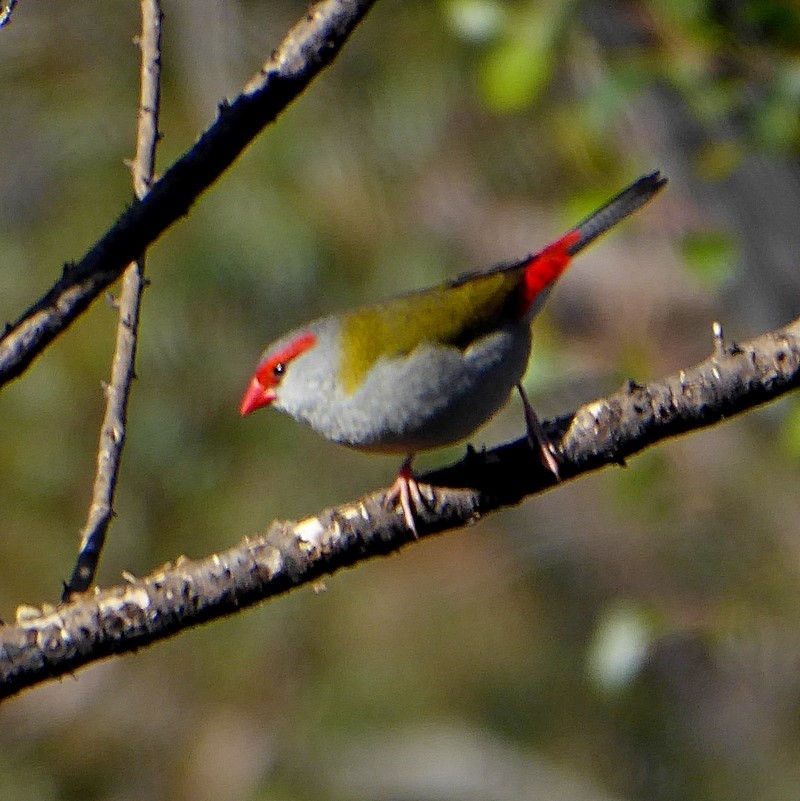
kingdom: Animalia
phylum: Chordata
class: Aves
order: Passeriformes
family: Estrildidae
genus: Neochmia
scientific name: Neochmia temporalis
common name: Red-browed finch
